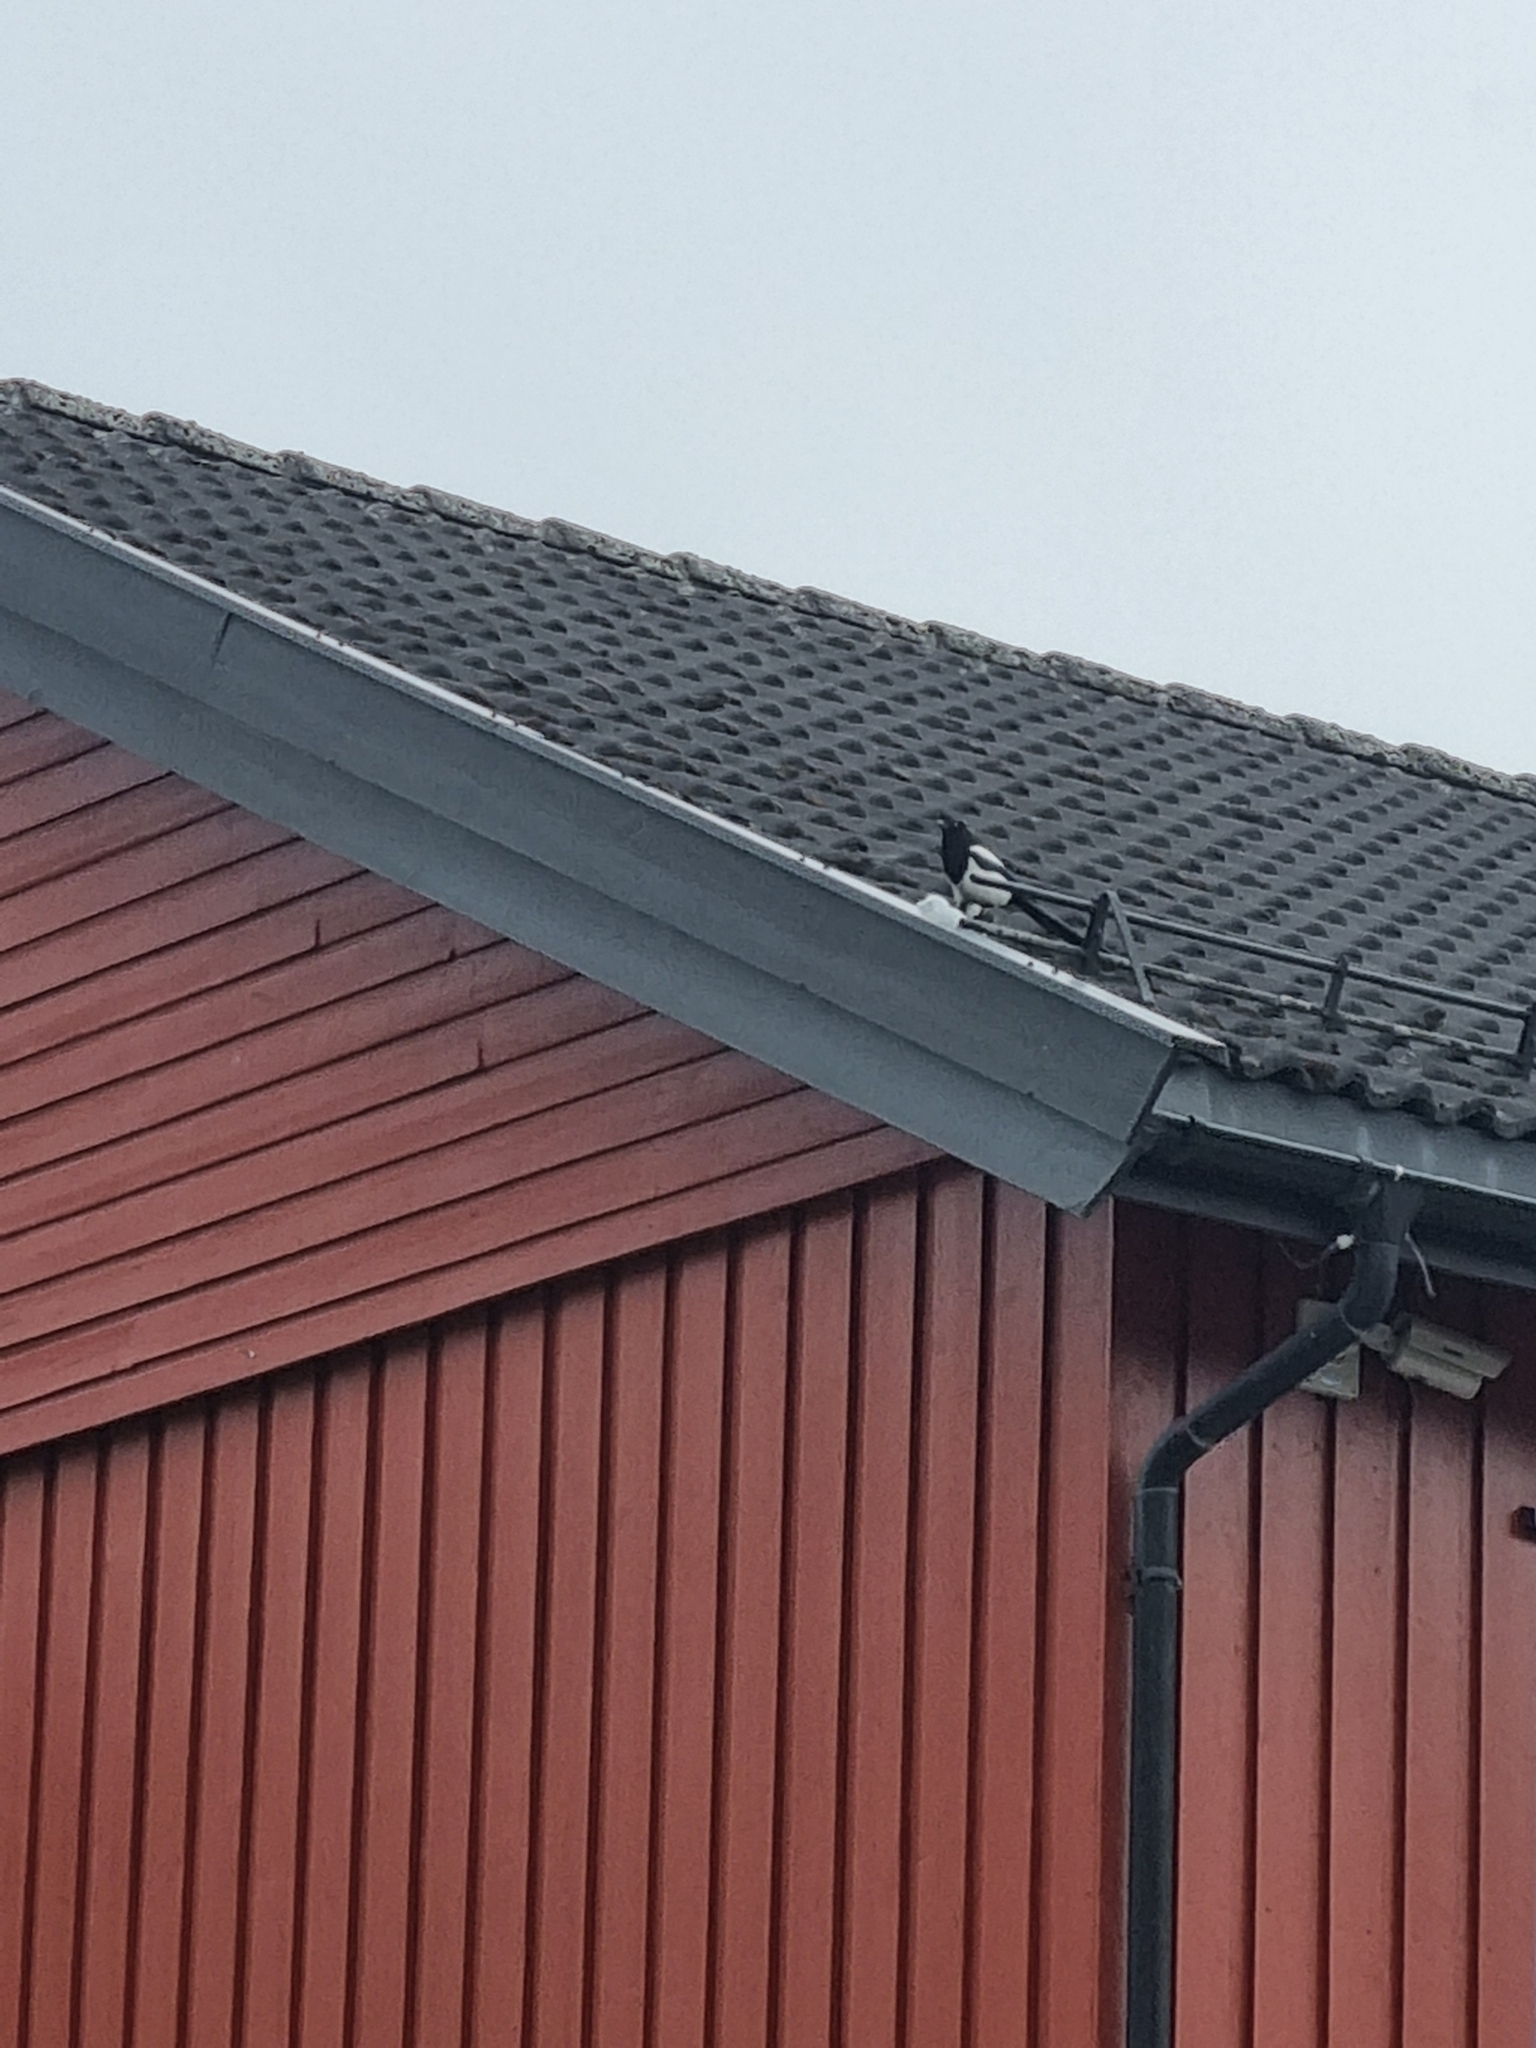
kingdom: Animalia
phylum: Chordata
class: Aves
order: Passeriformes
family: Corvidae
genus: Pica
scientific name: Pica pica
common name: Eurasian magpie
